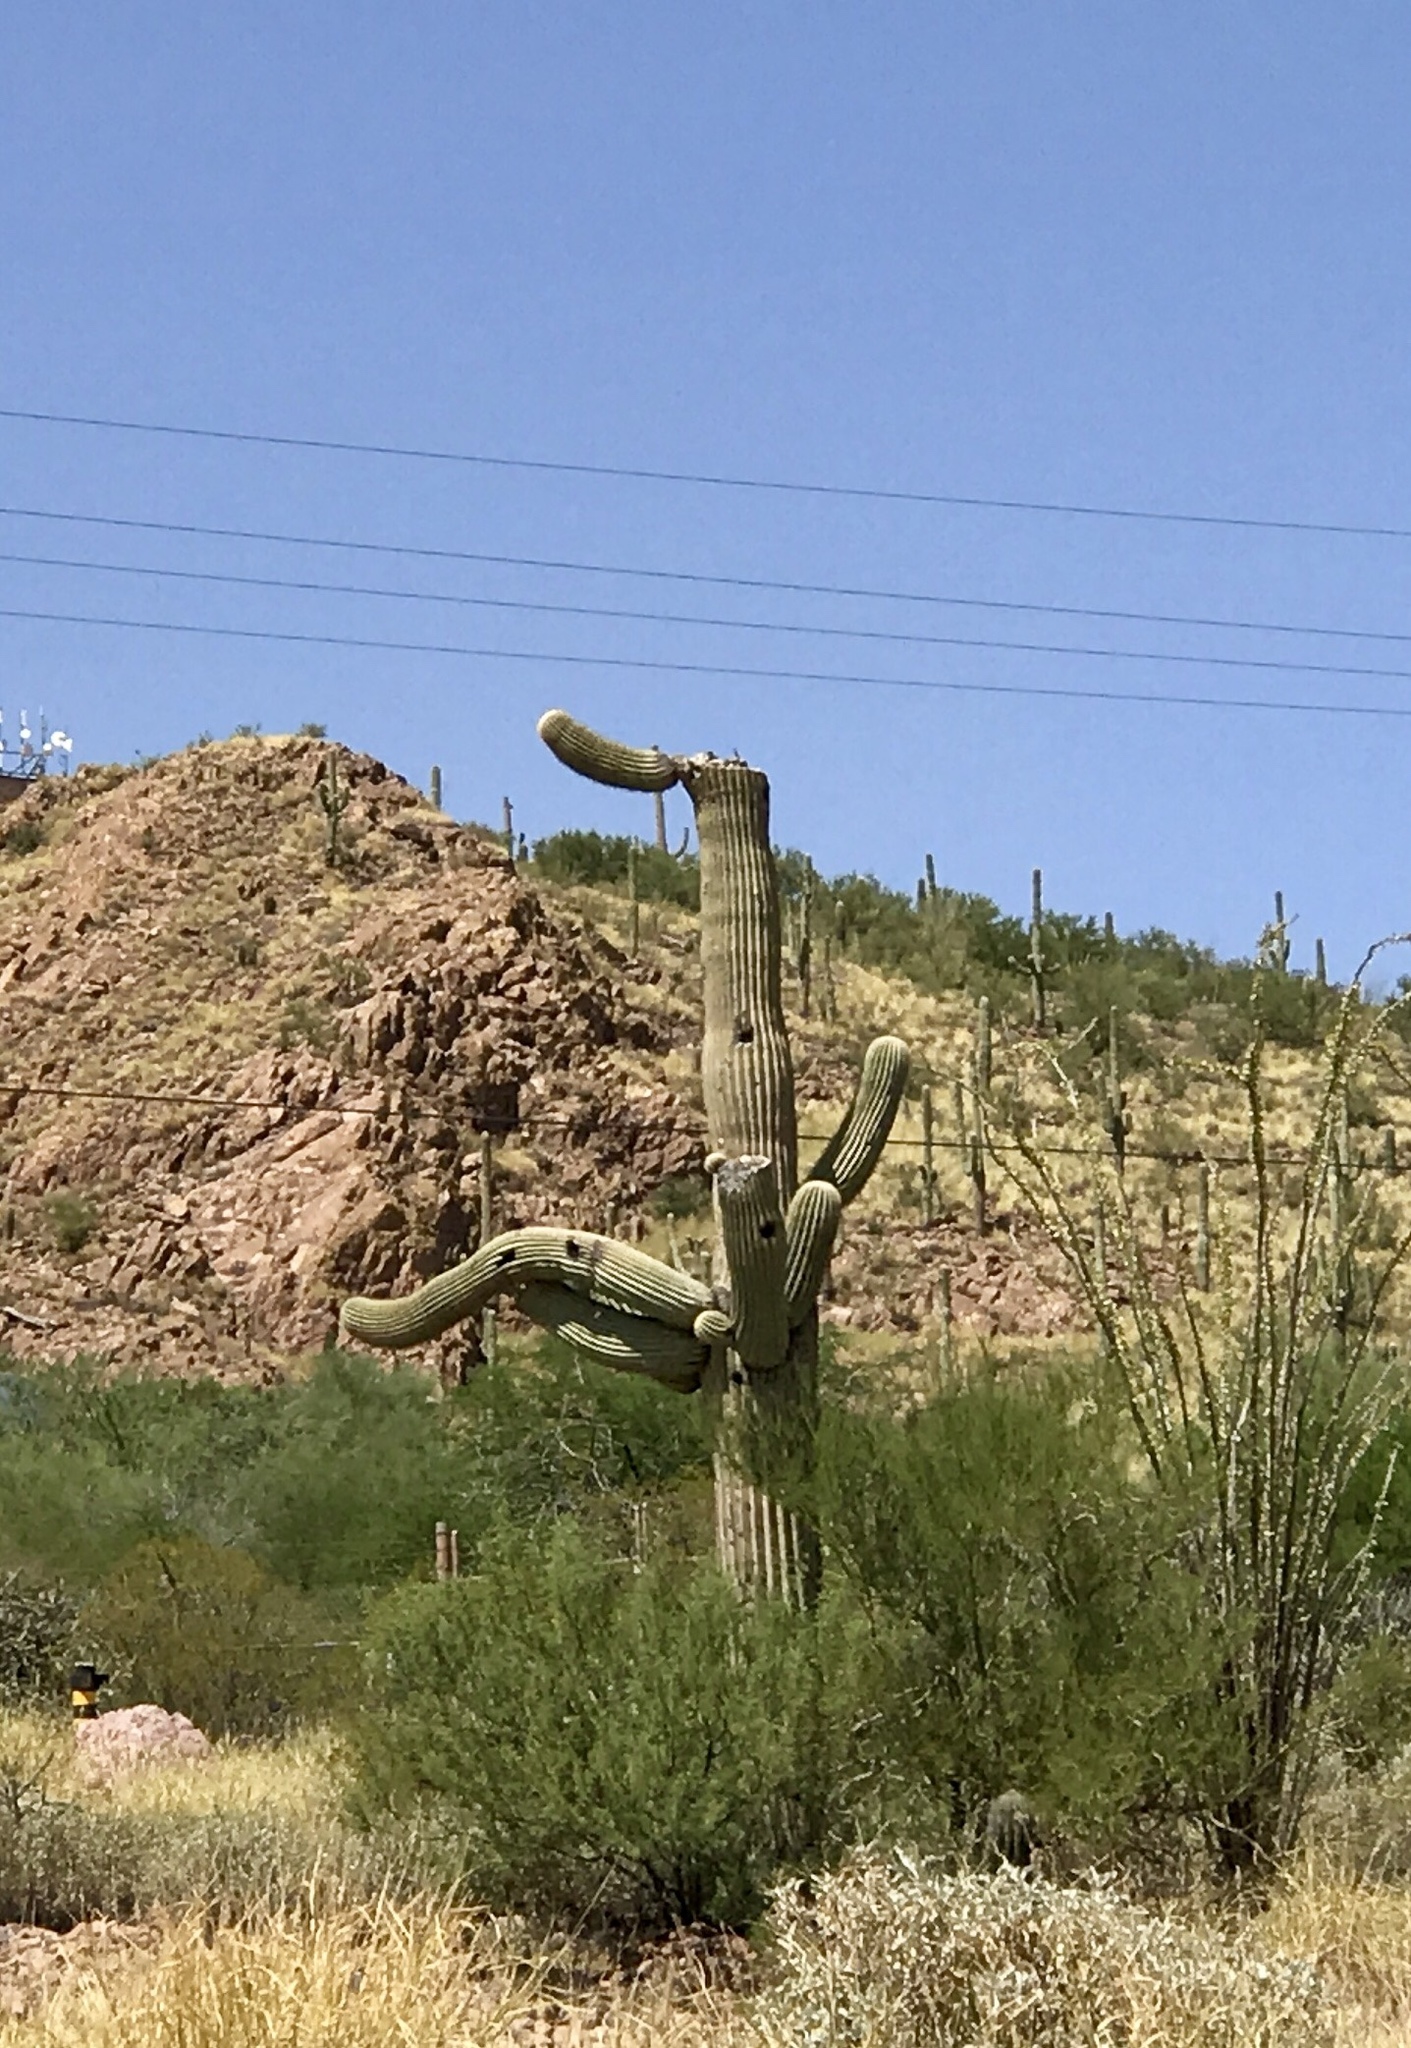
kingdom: Plantae
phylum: Tracheophyta
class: Magnoliopsida
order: Caryophyllales
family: Cactaceae
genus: Carnegiea
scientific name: Carnegiea gigantea
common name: Saguaro
